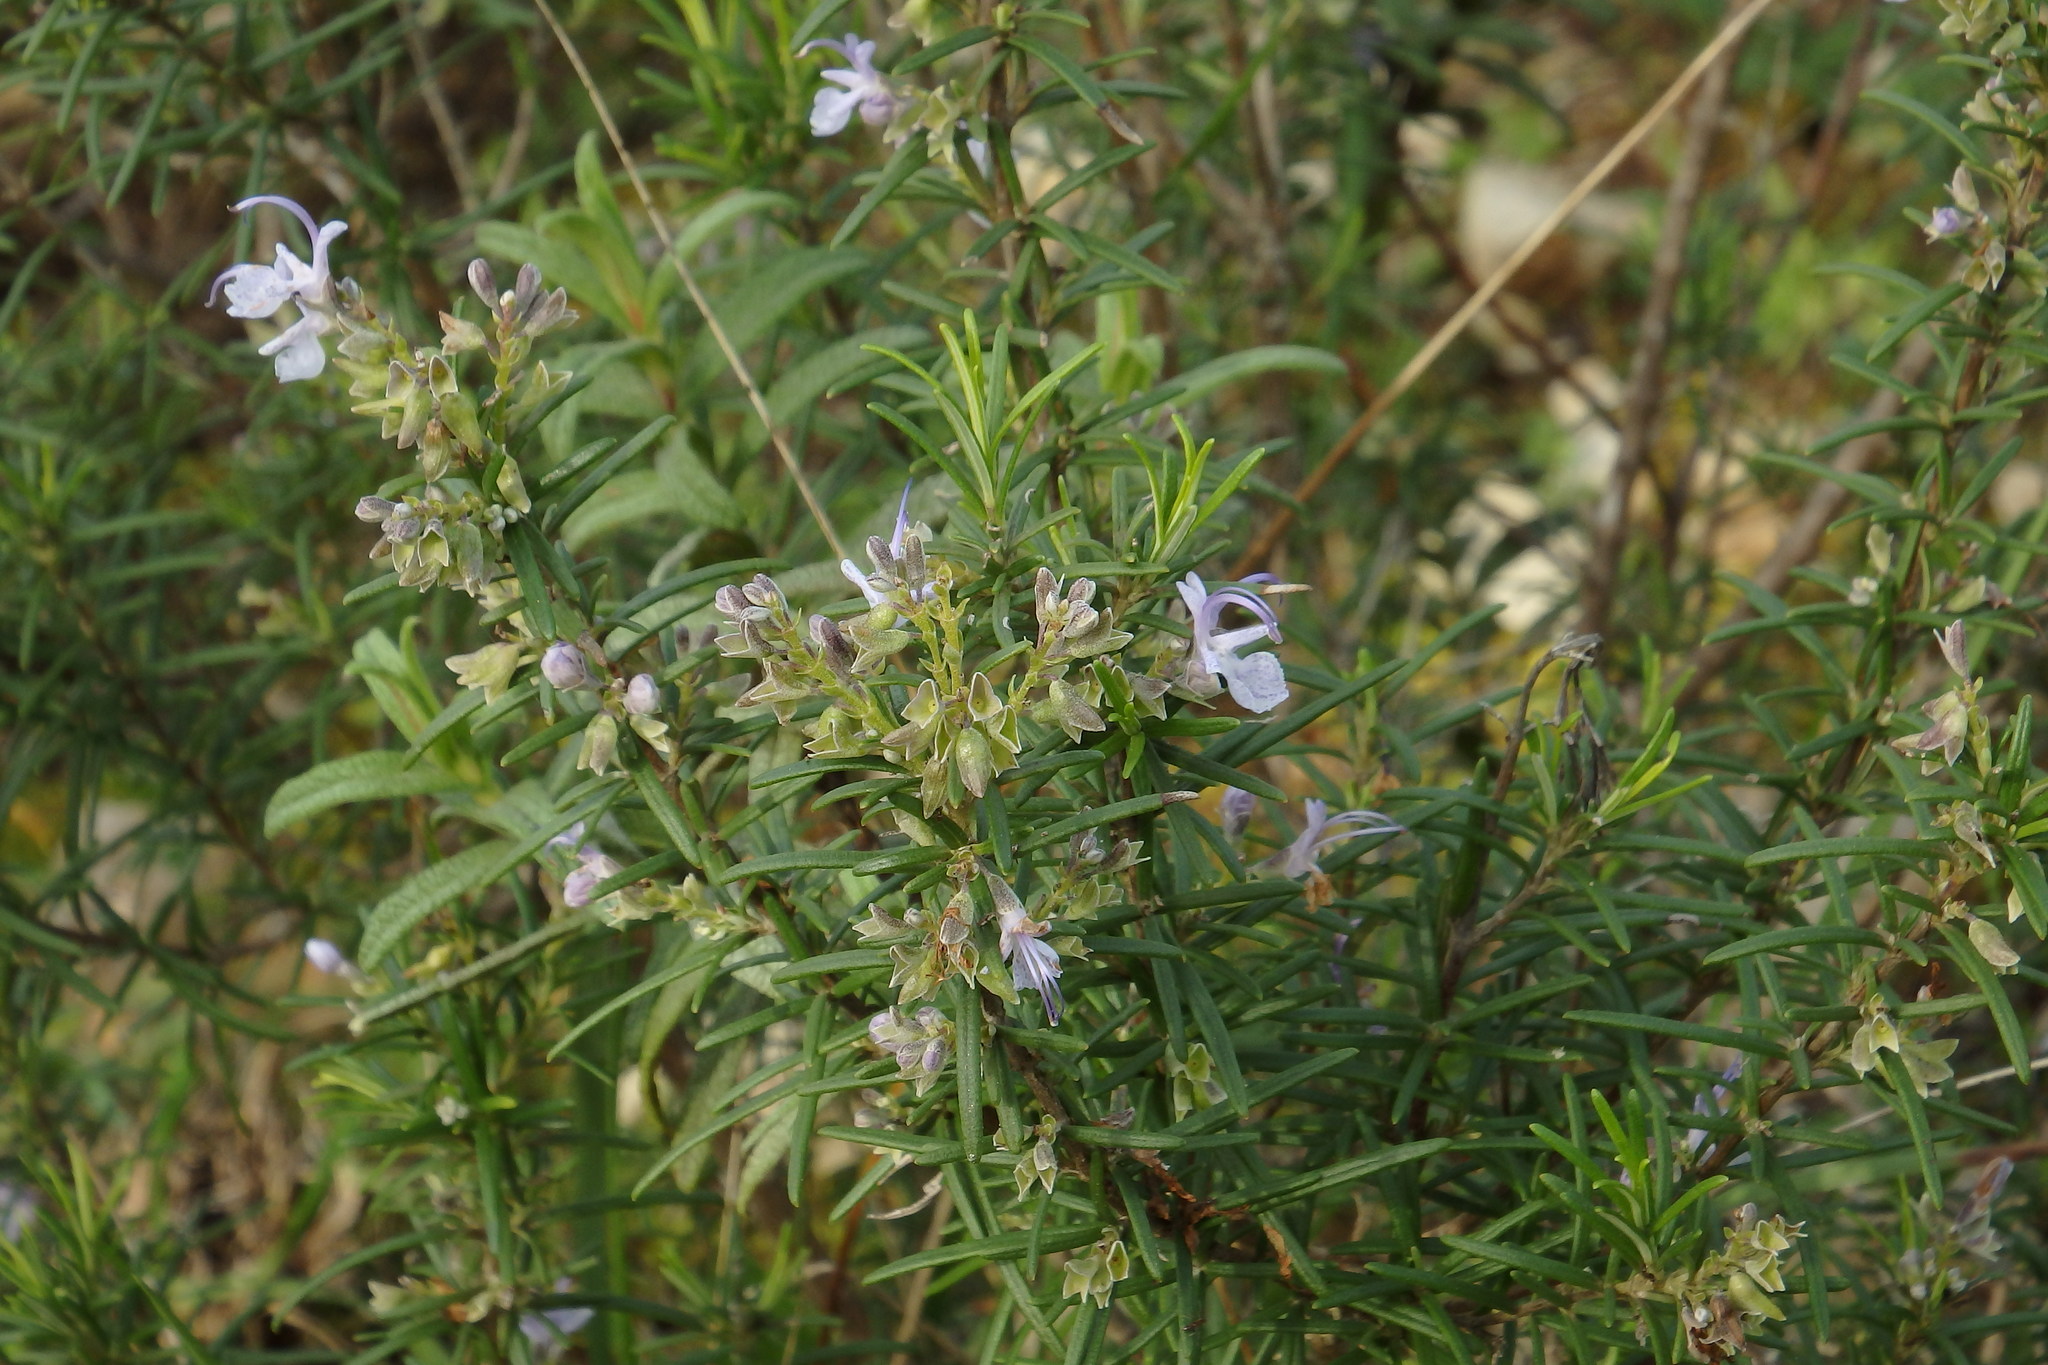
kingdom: Plantae
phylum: Tracheophyta
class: Magnoliopsida
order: Lamiales
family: Lamiaceae
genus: Salvia
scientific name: Salvia rosmarinus
